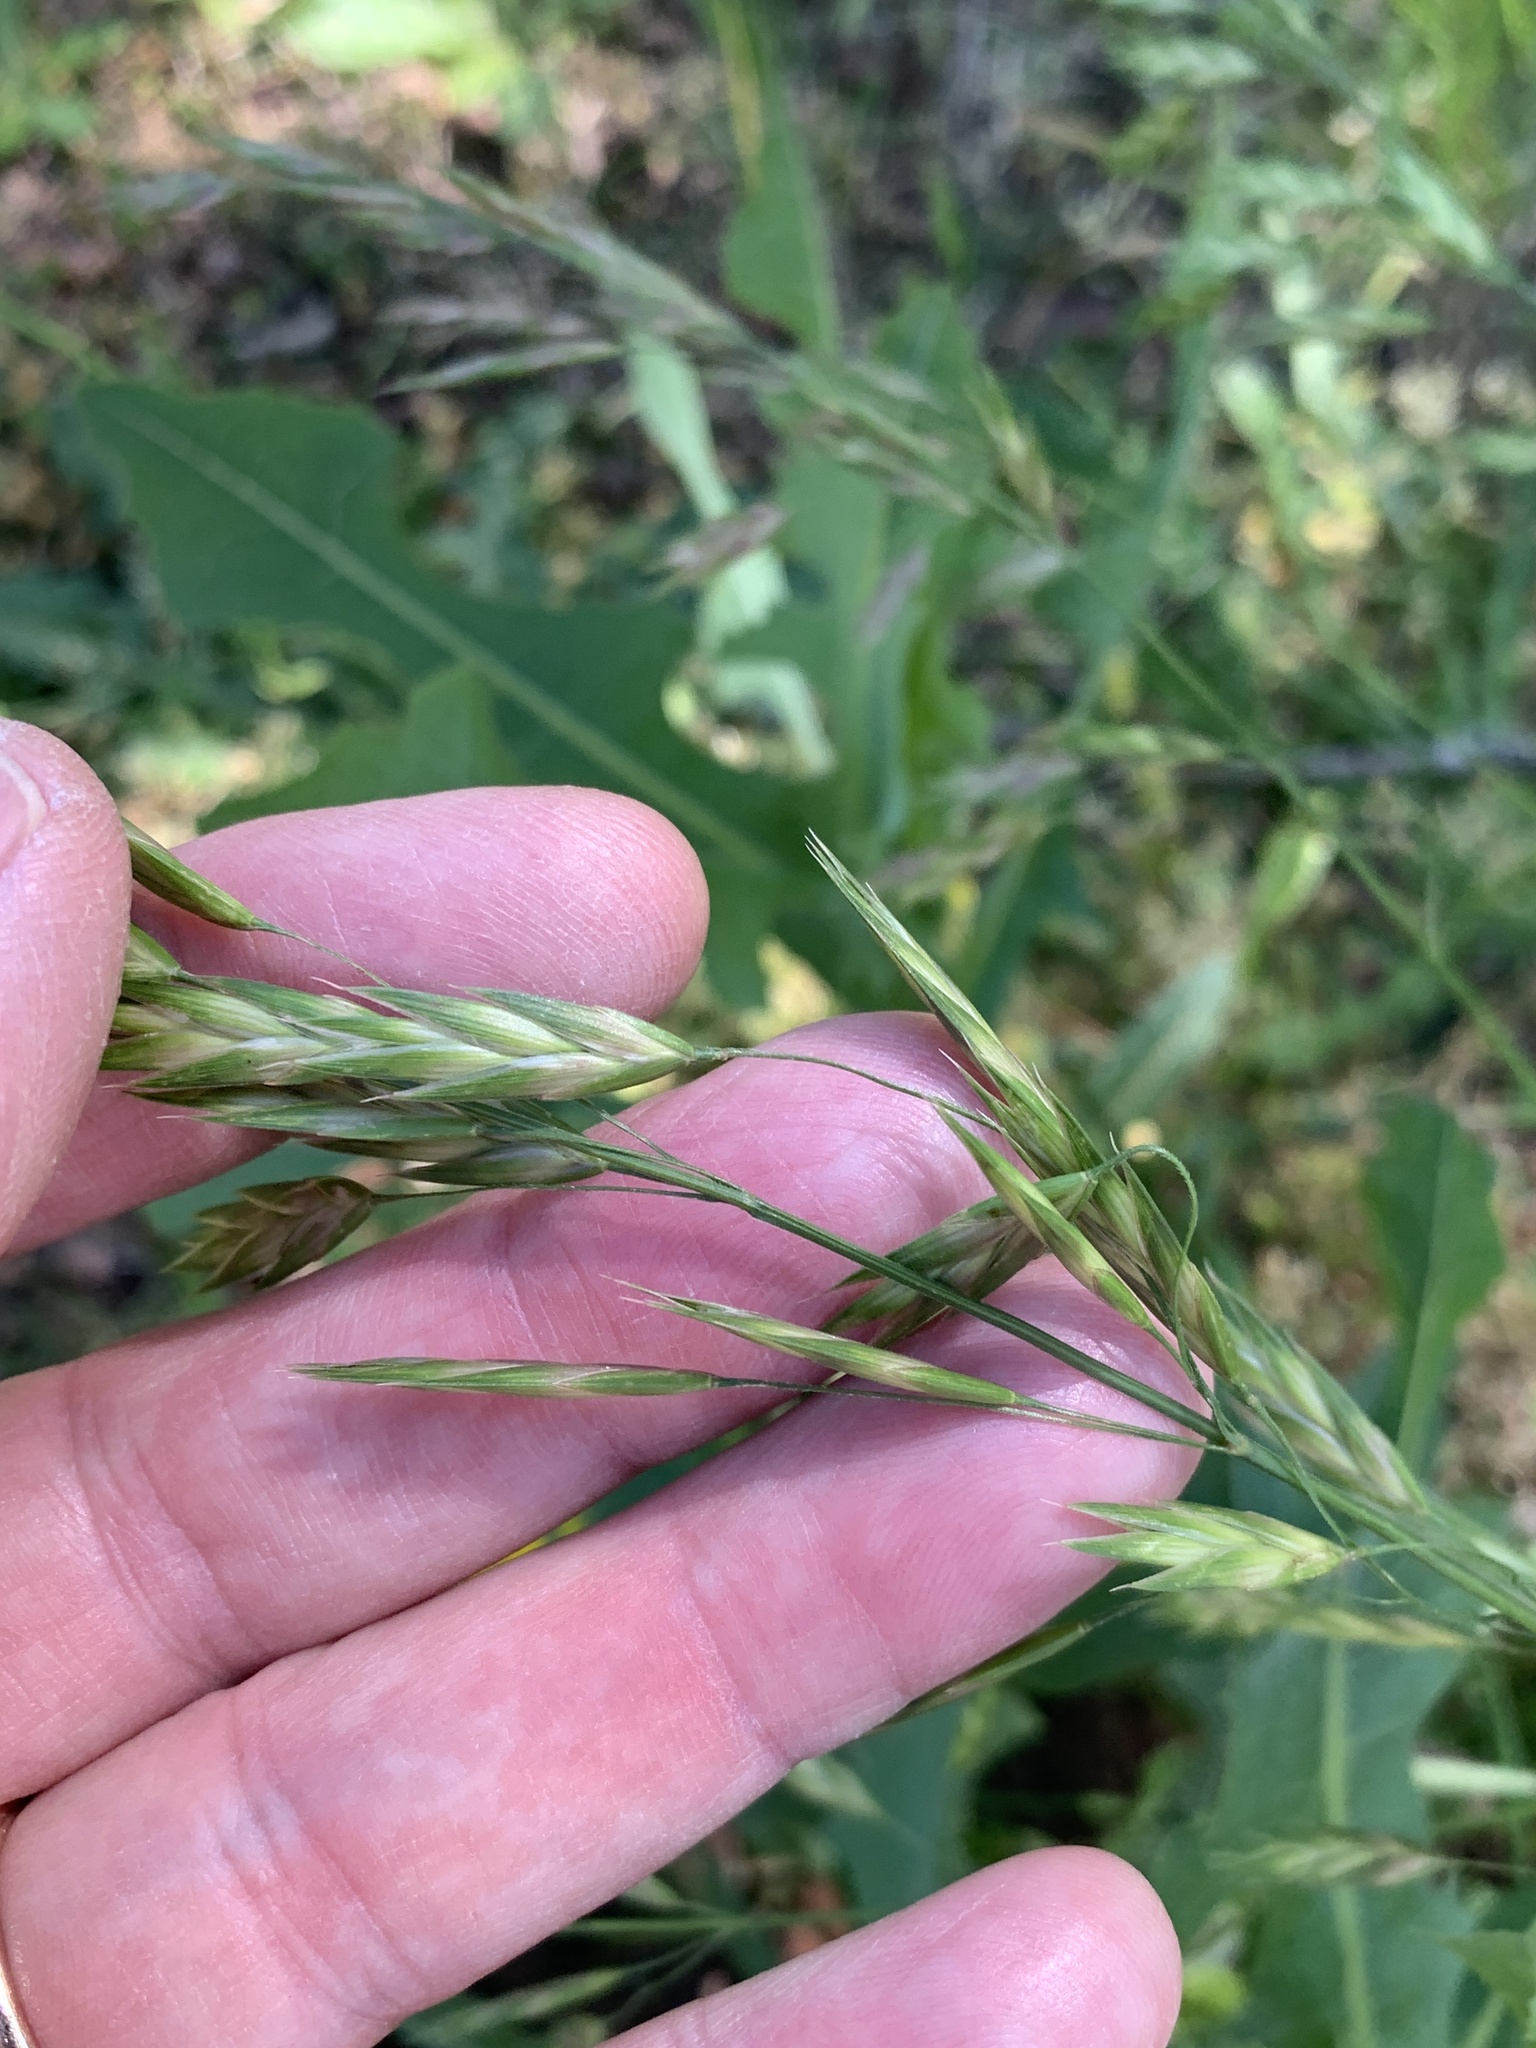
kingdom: Plantae
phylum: Tracheophyta
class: Liliopsida
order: Poales
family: Poaceae
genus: Bromus
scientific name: Bromus catharticus
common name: Rescuegrass
